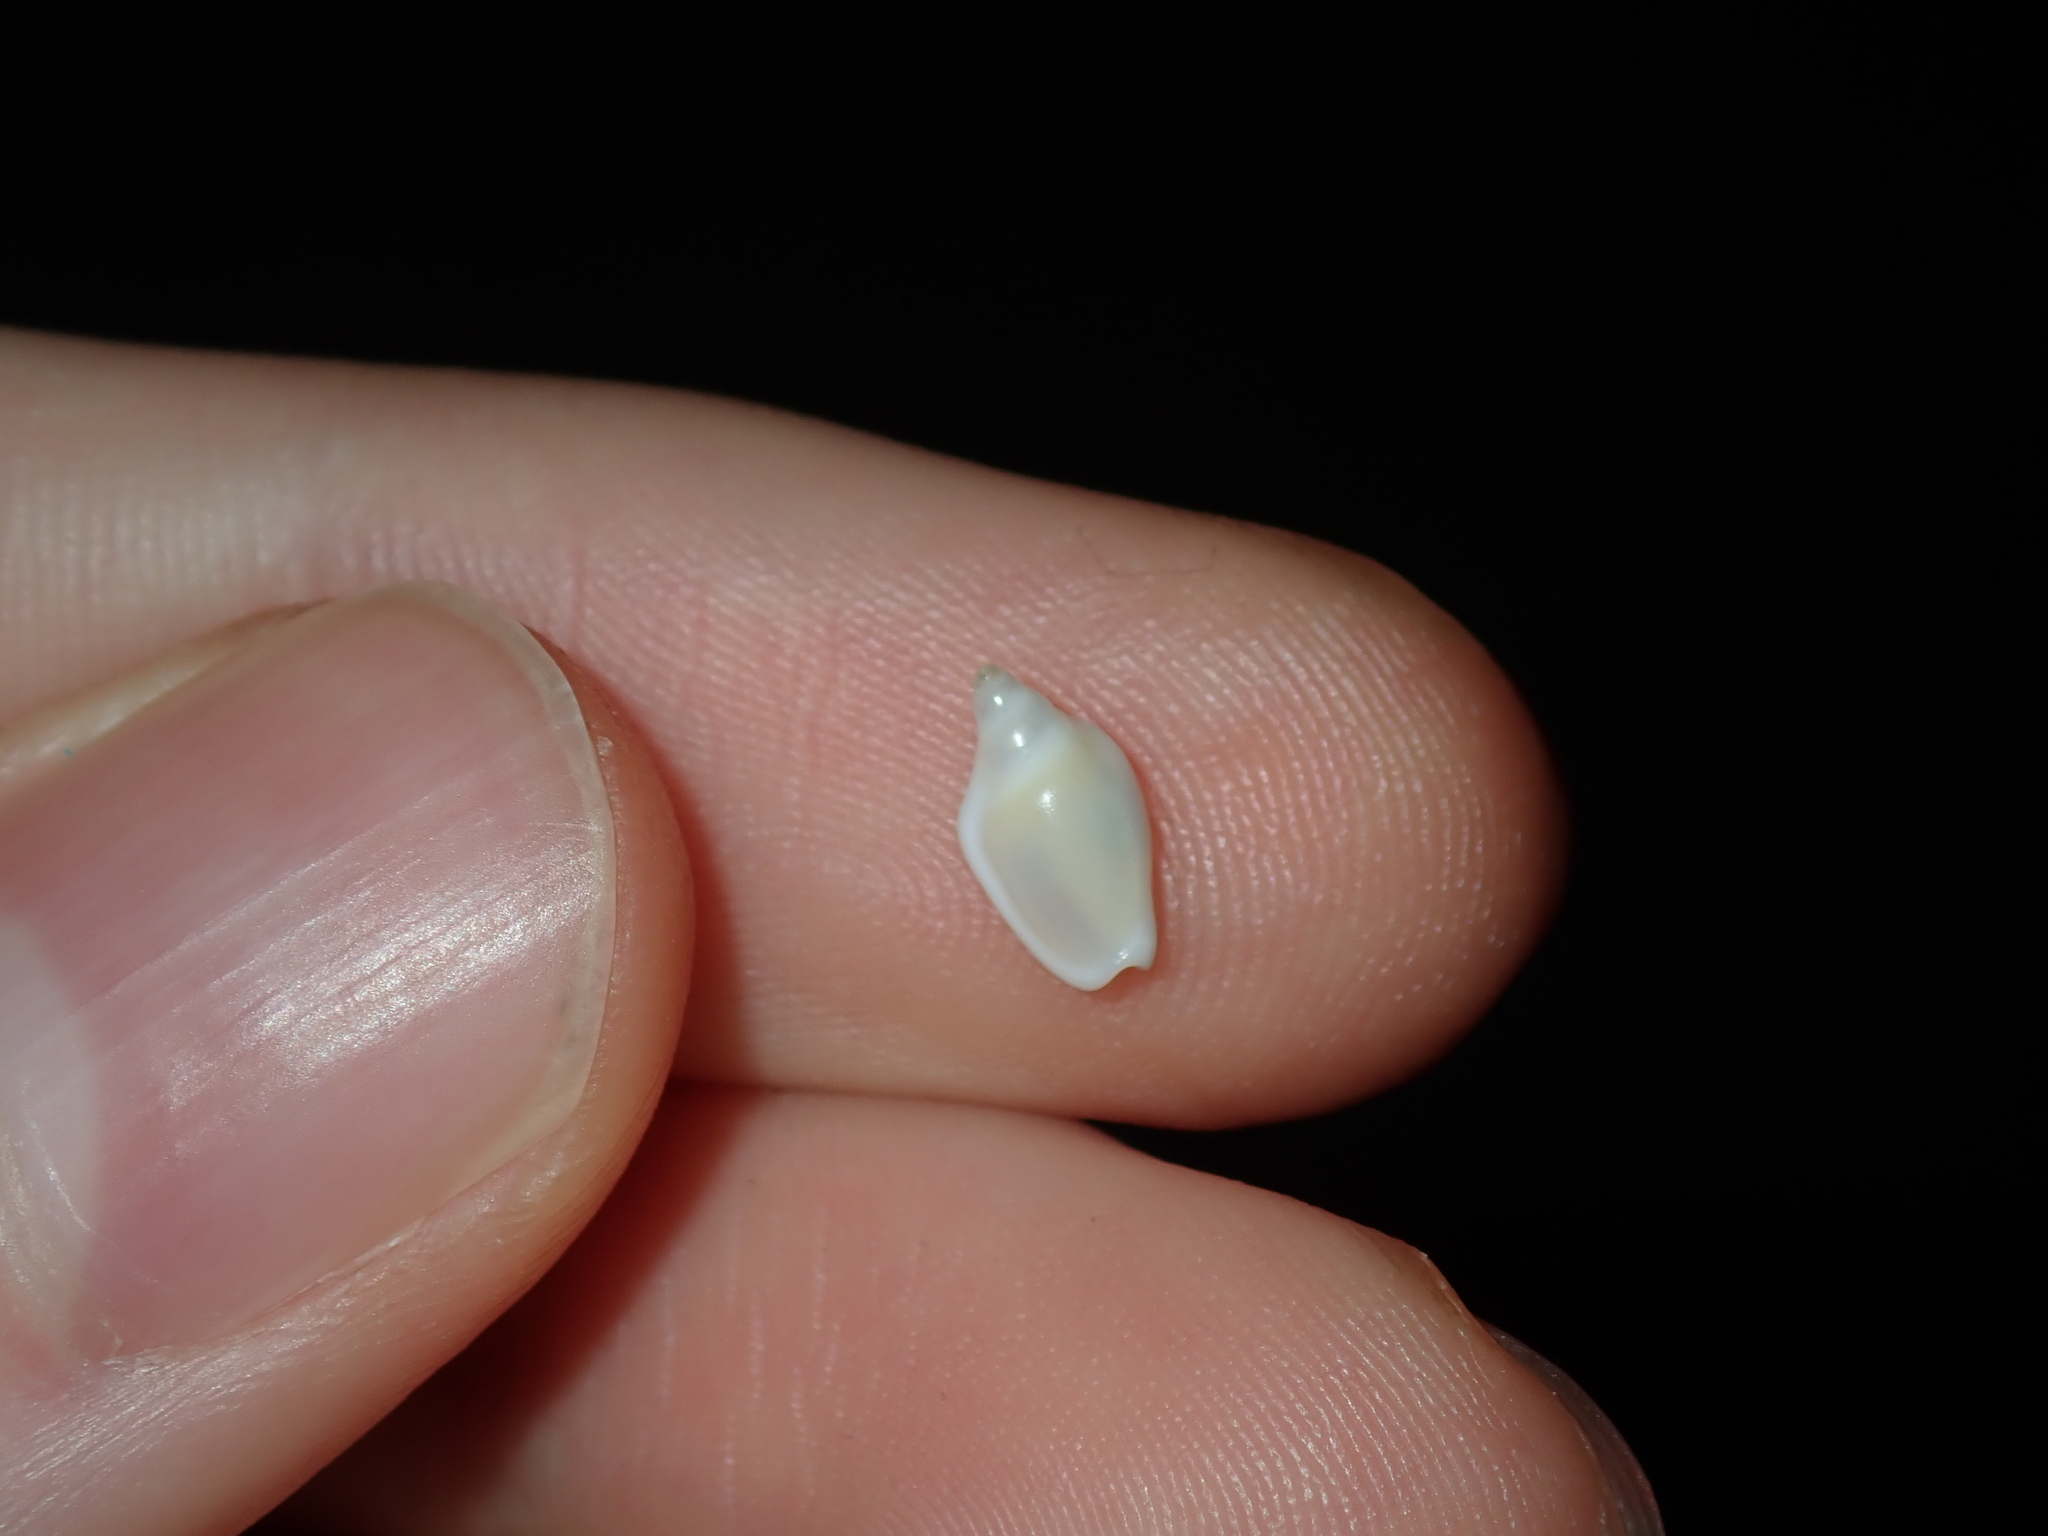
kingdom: Animalia
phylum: Mollusca
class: Gastropoda
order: Neogastropoda
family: Marginellidae
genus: Austroginella
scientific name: Austroginella johnstoni
